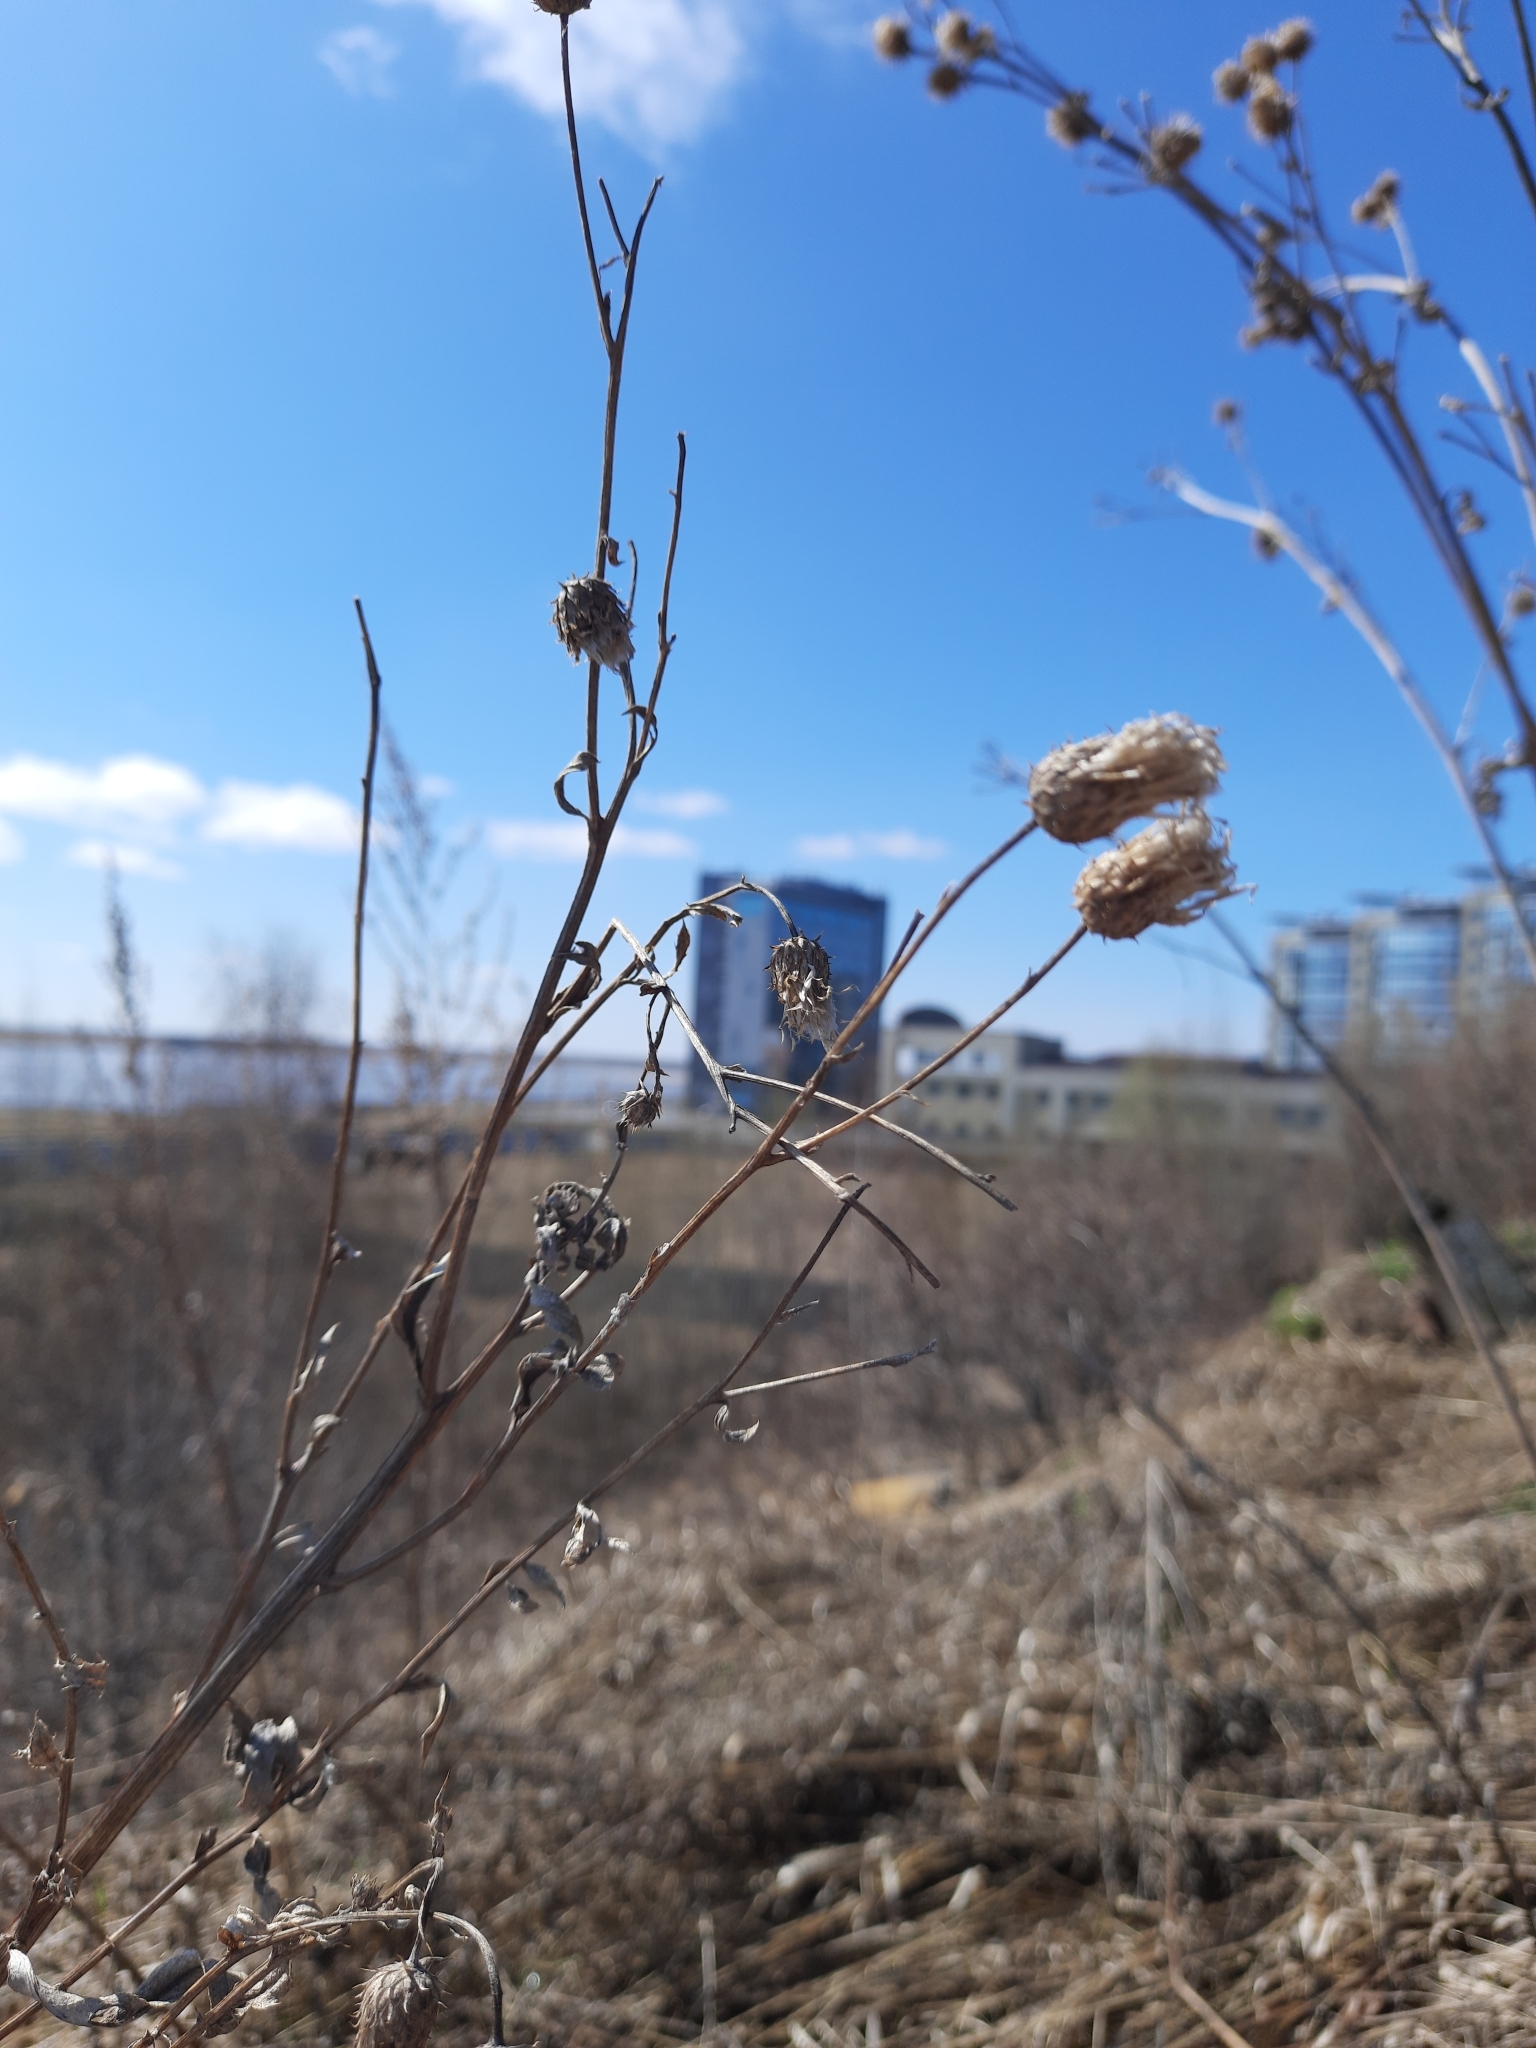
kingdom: Plantae
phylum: Tracheophyta
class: Magnoliopsida
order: Asterales
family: Asteraceae
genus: Cirsium
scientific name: Cirsium arvense
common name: Creeping thistle
